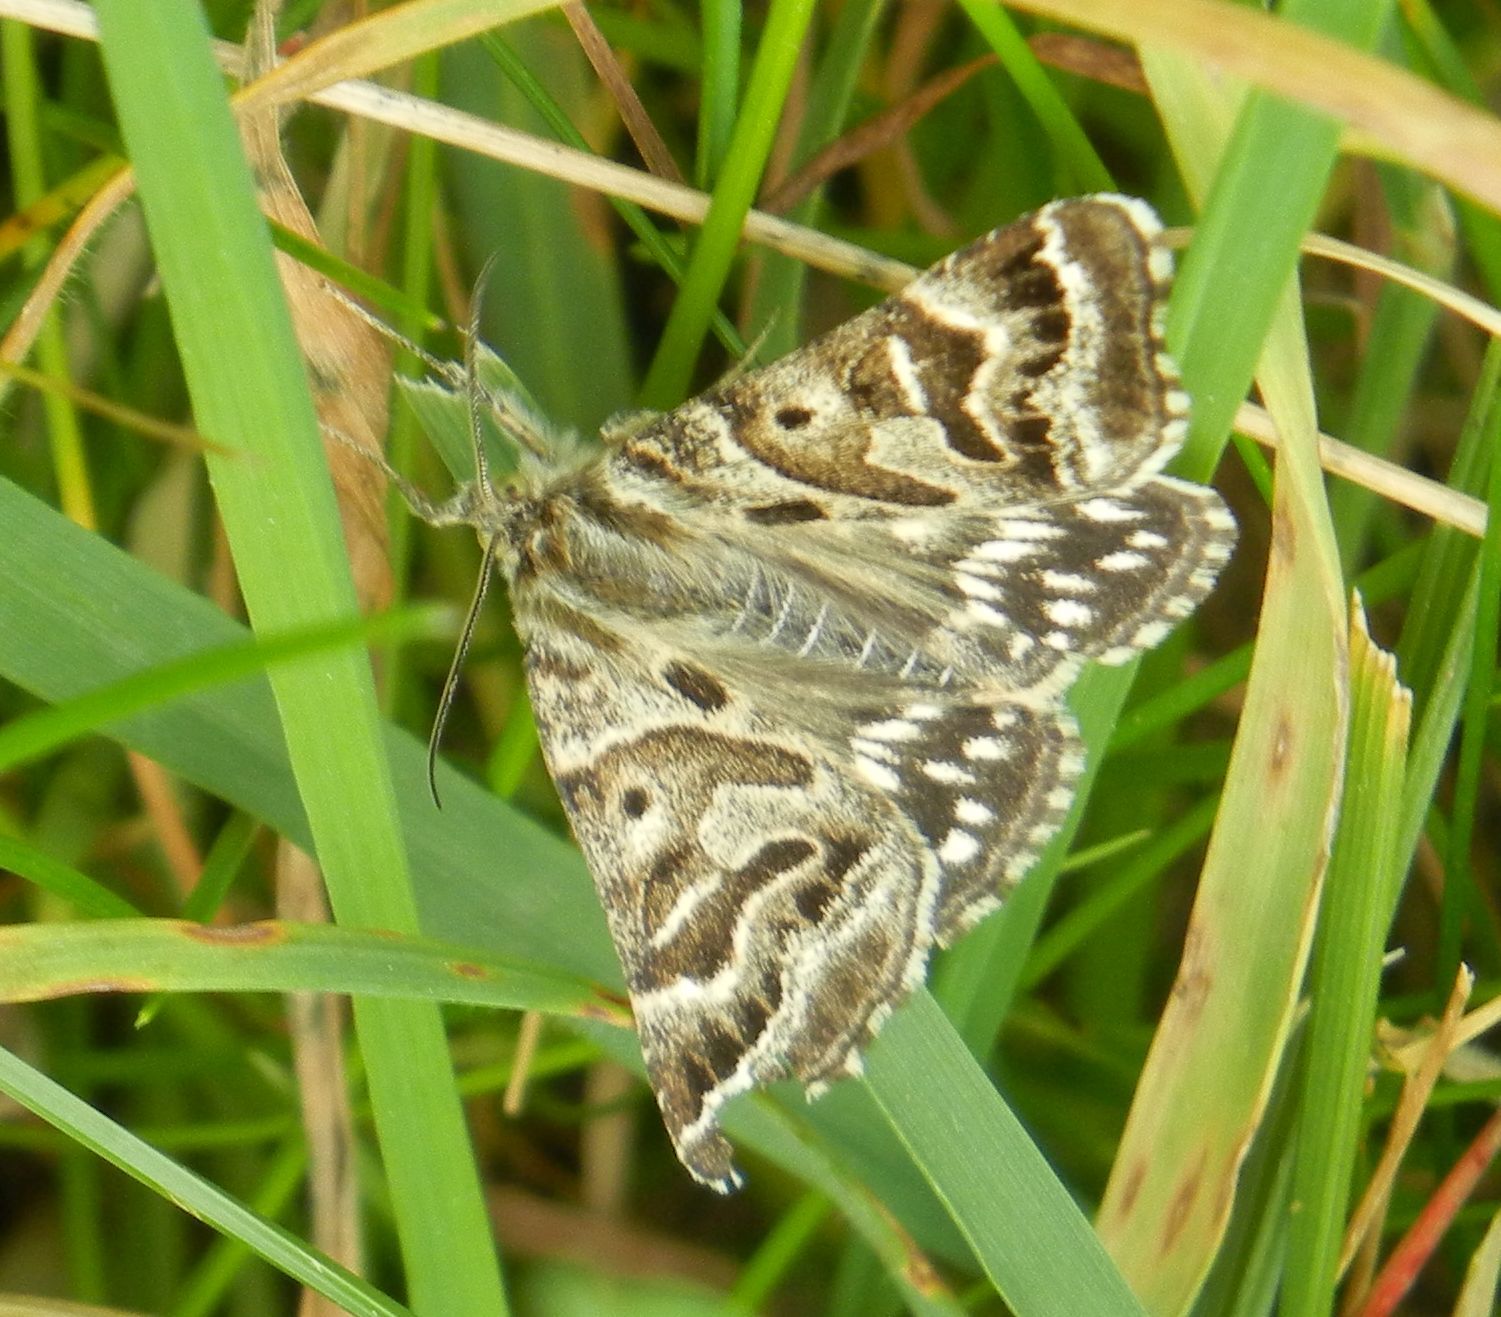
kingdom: Animalia
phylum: Arthropoda
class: Insecta
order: Lepidoptera
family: Erebidae
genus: Callistege
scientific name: Callistege mi
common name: Mother shipton
